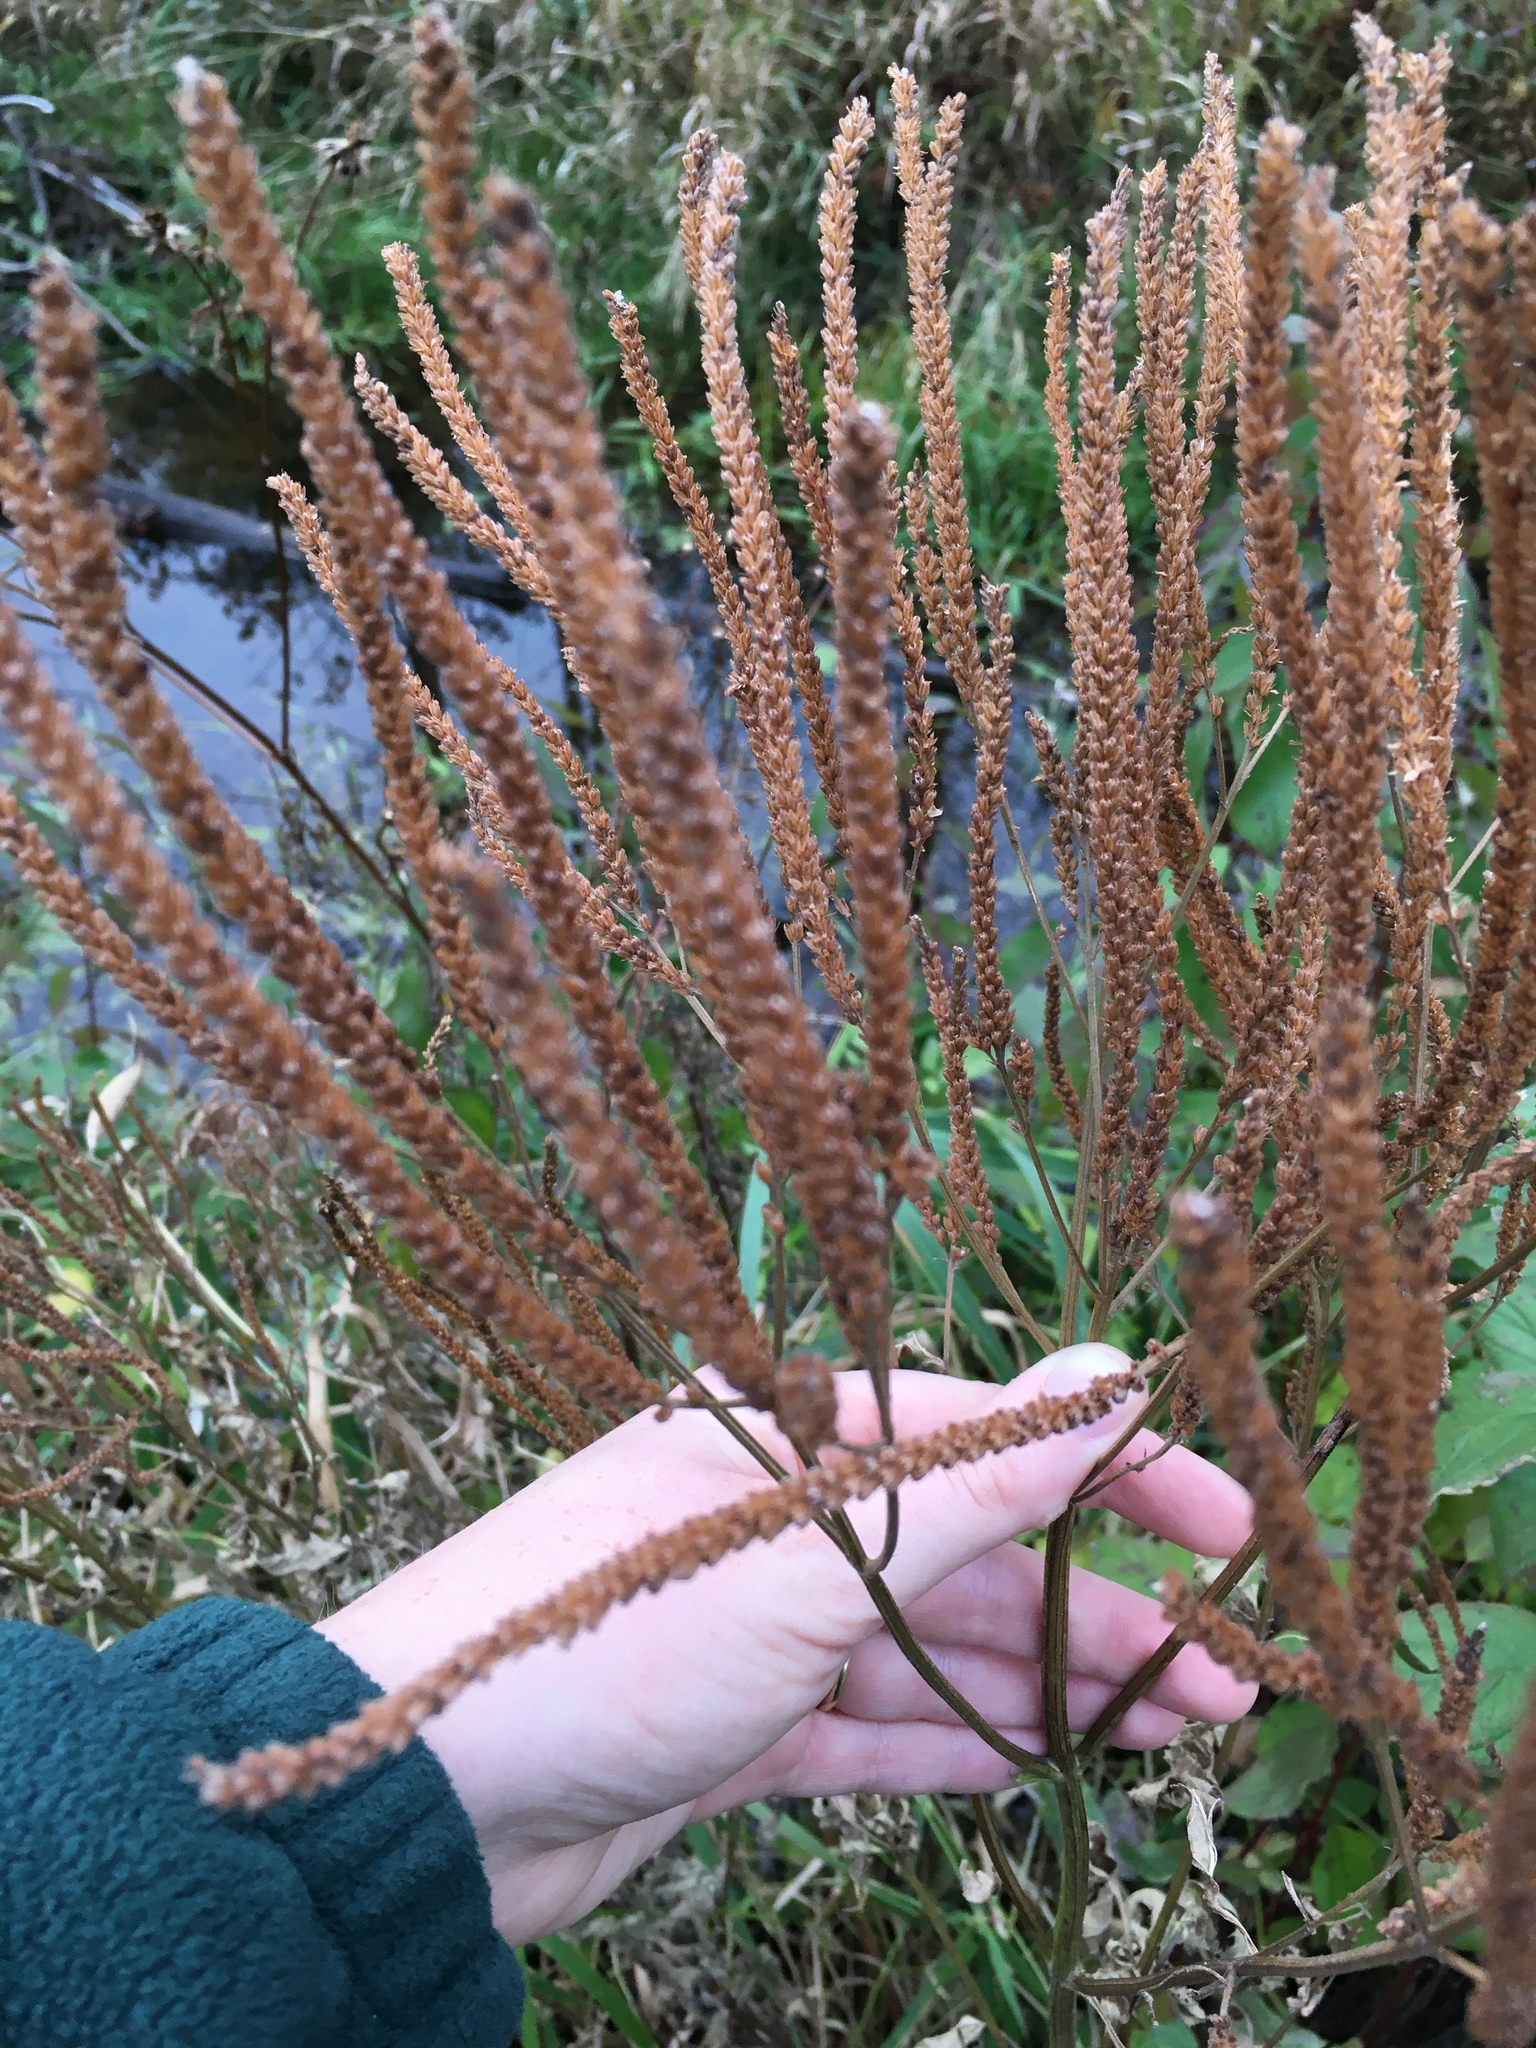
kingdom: Plantae
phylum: Tracheophyta
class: Magnoliopsida
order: Lamiales
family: Verbenaceae
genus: Verbena
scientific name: Verbena hastata
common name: American blue vervain
